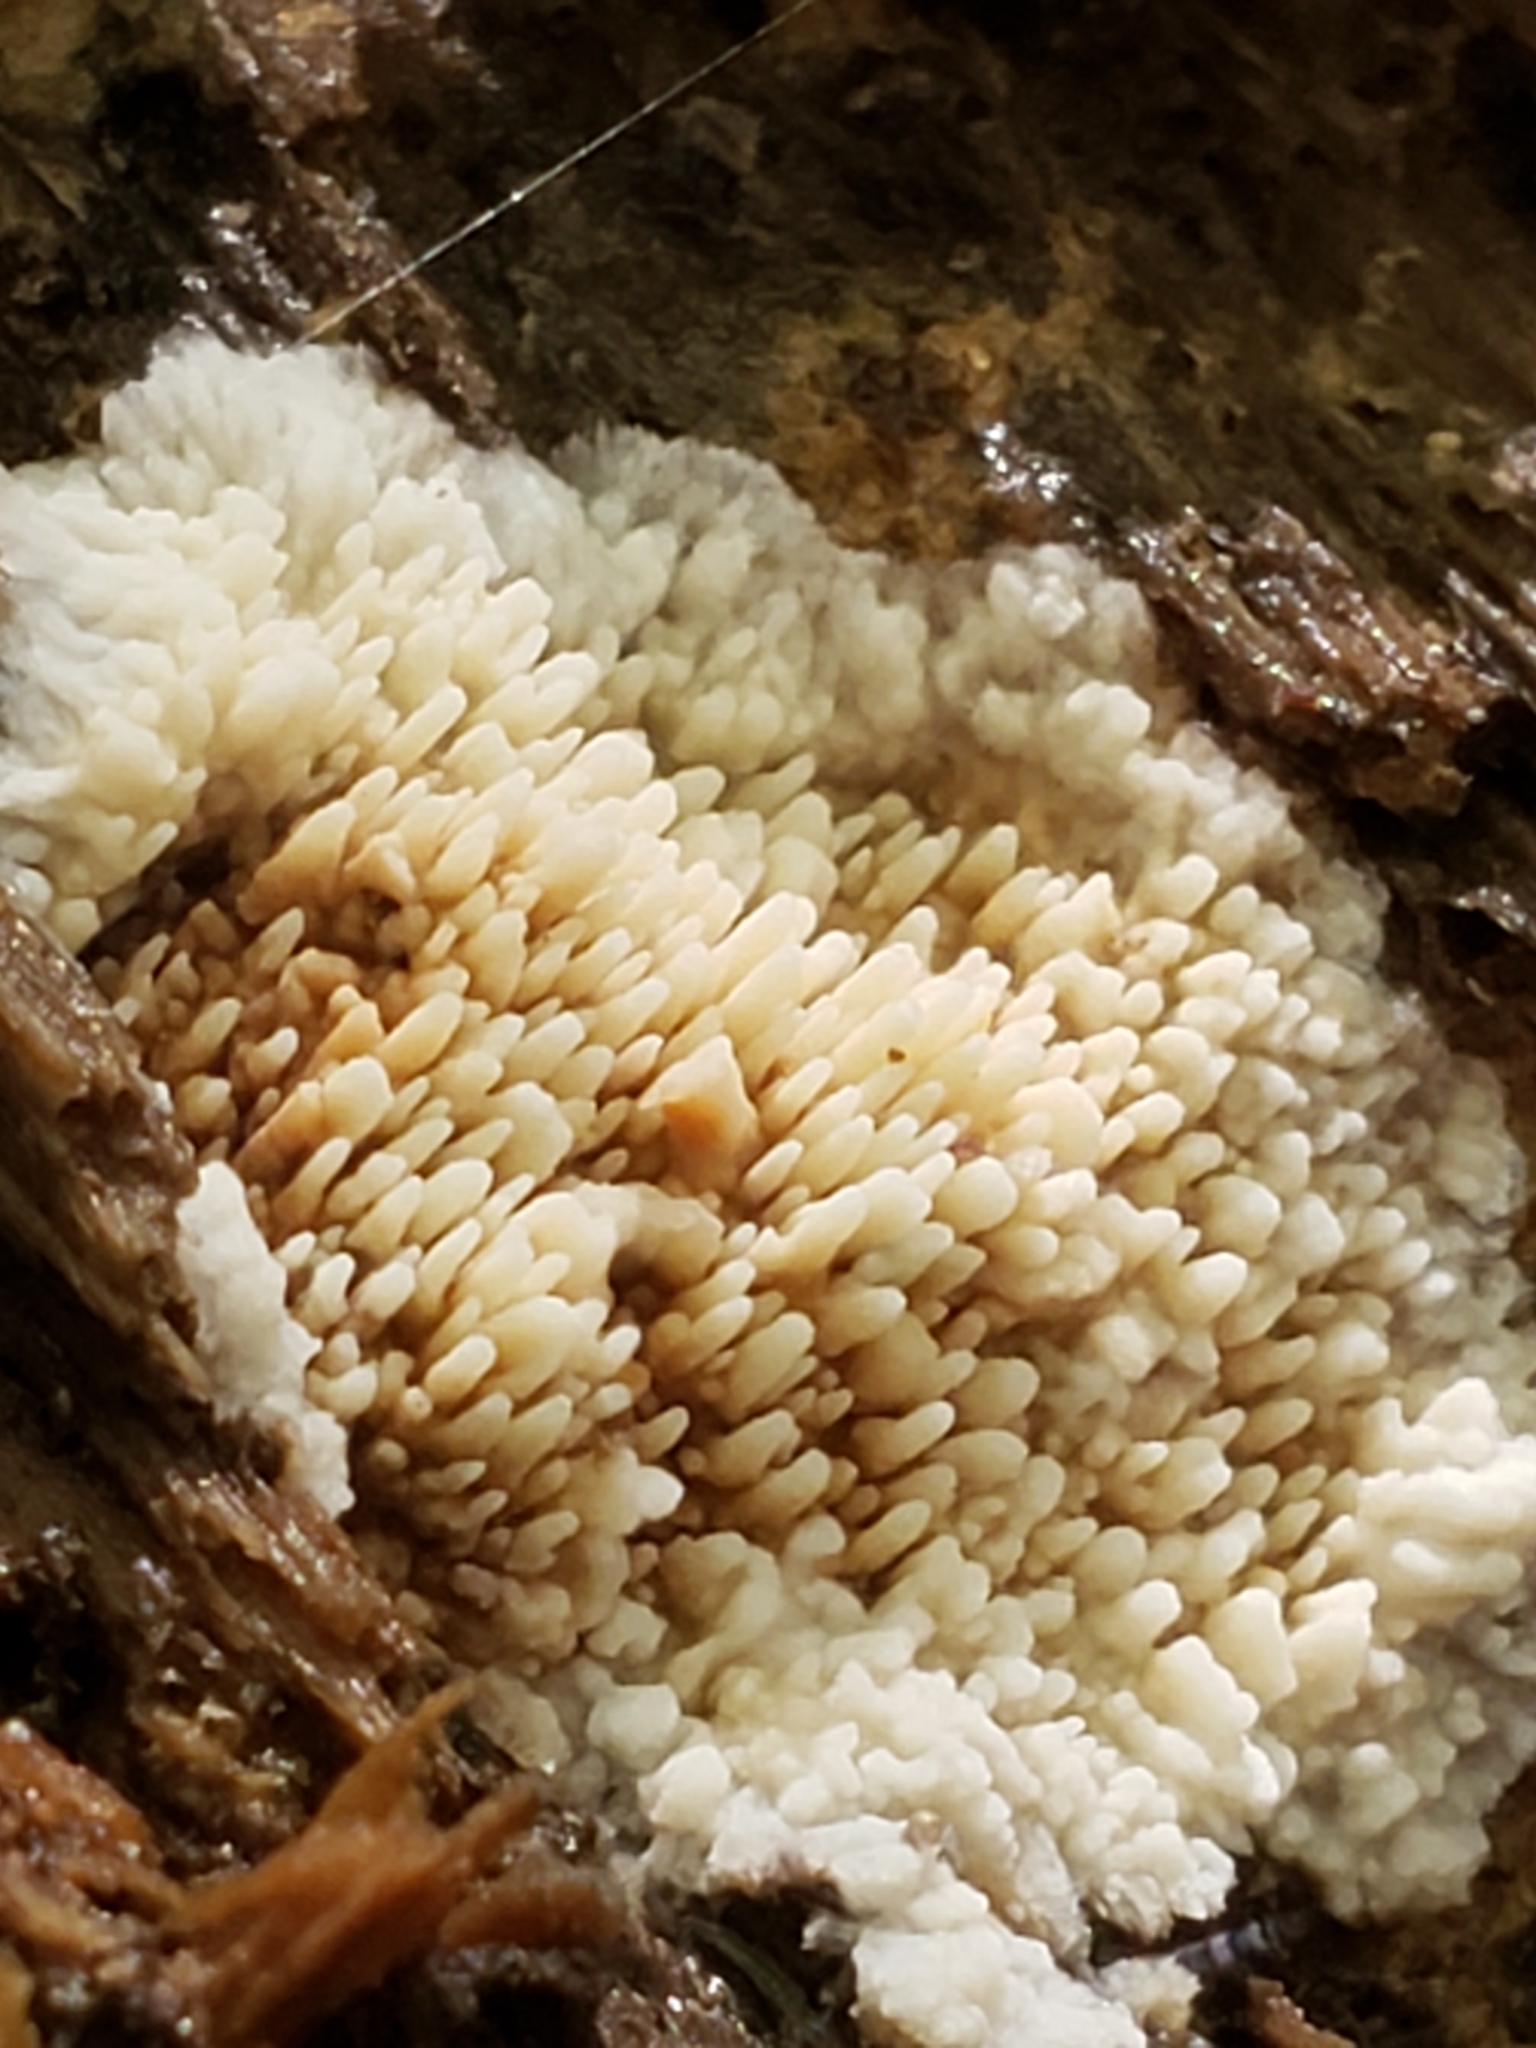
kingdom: Fungi
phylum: Basidiomycota
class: Agaricomycetes
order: Agaricales
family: Radulomycetaceae
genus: Radulomyces
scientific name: Radulomyces copelandii
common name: Asian beauty
